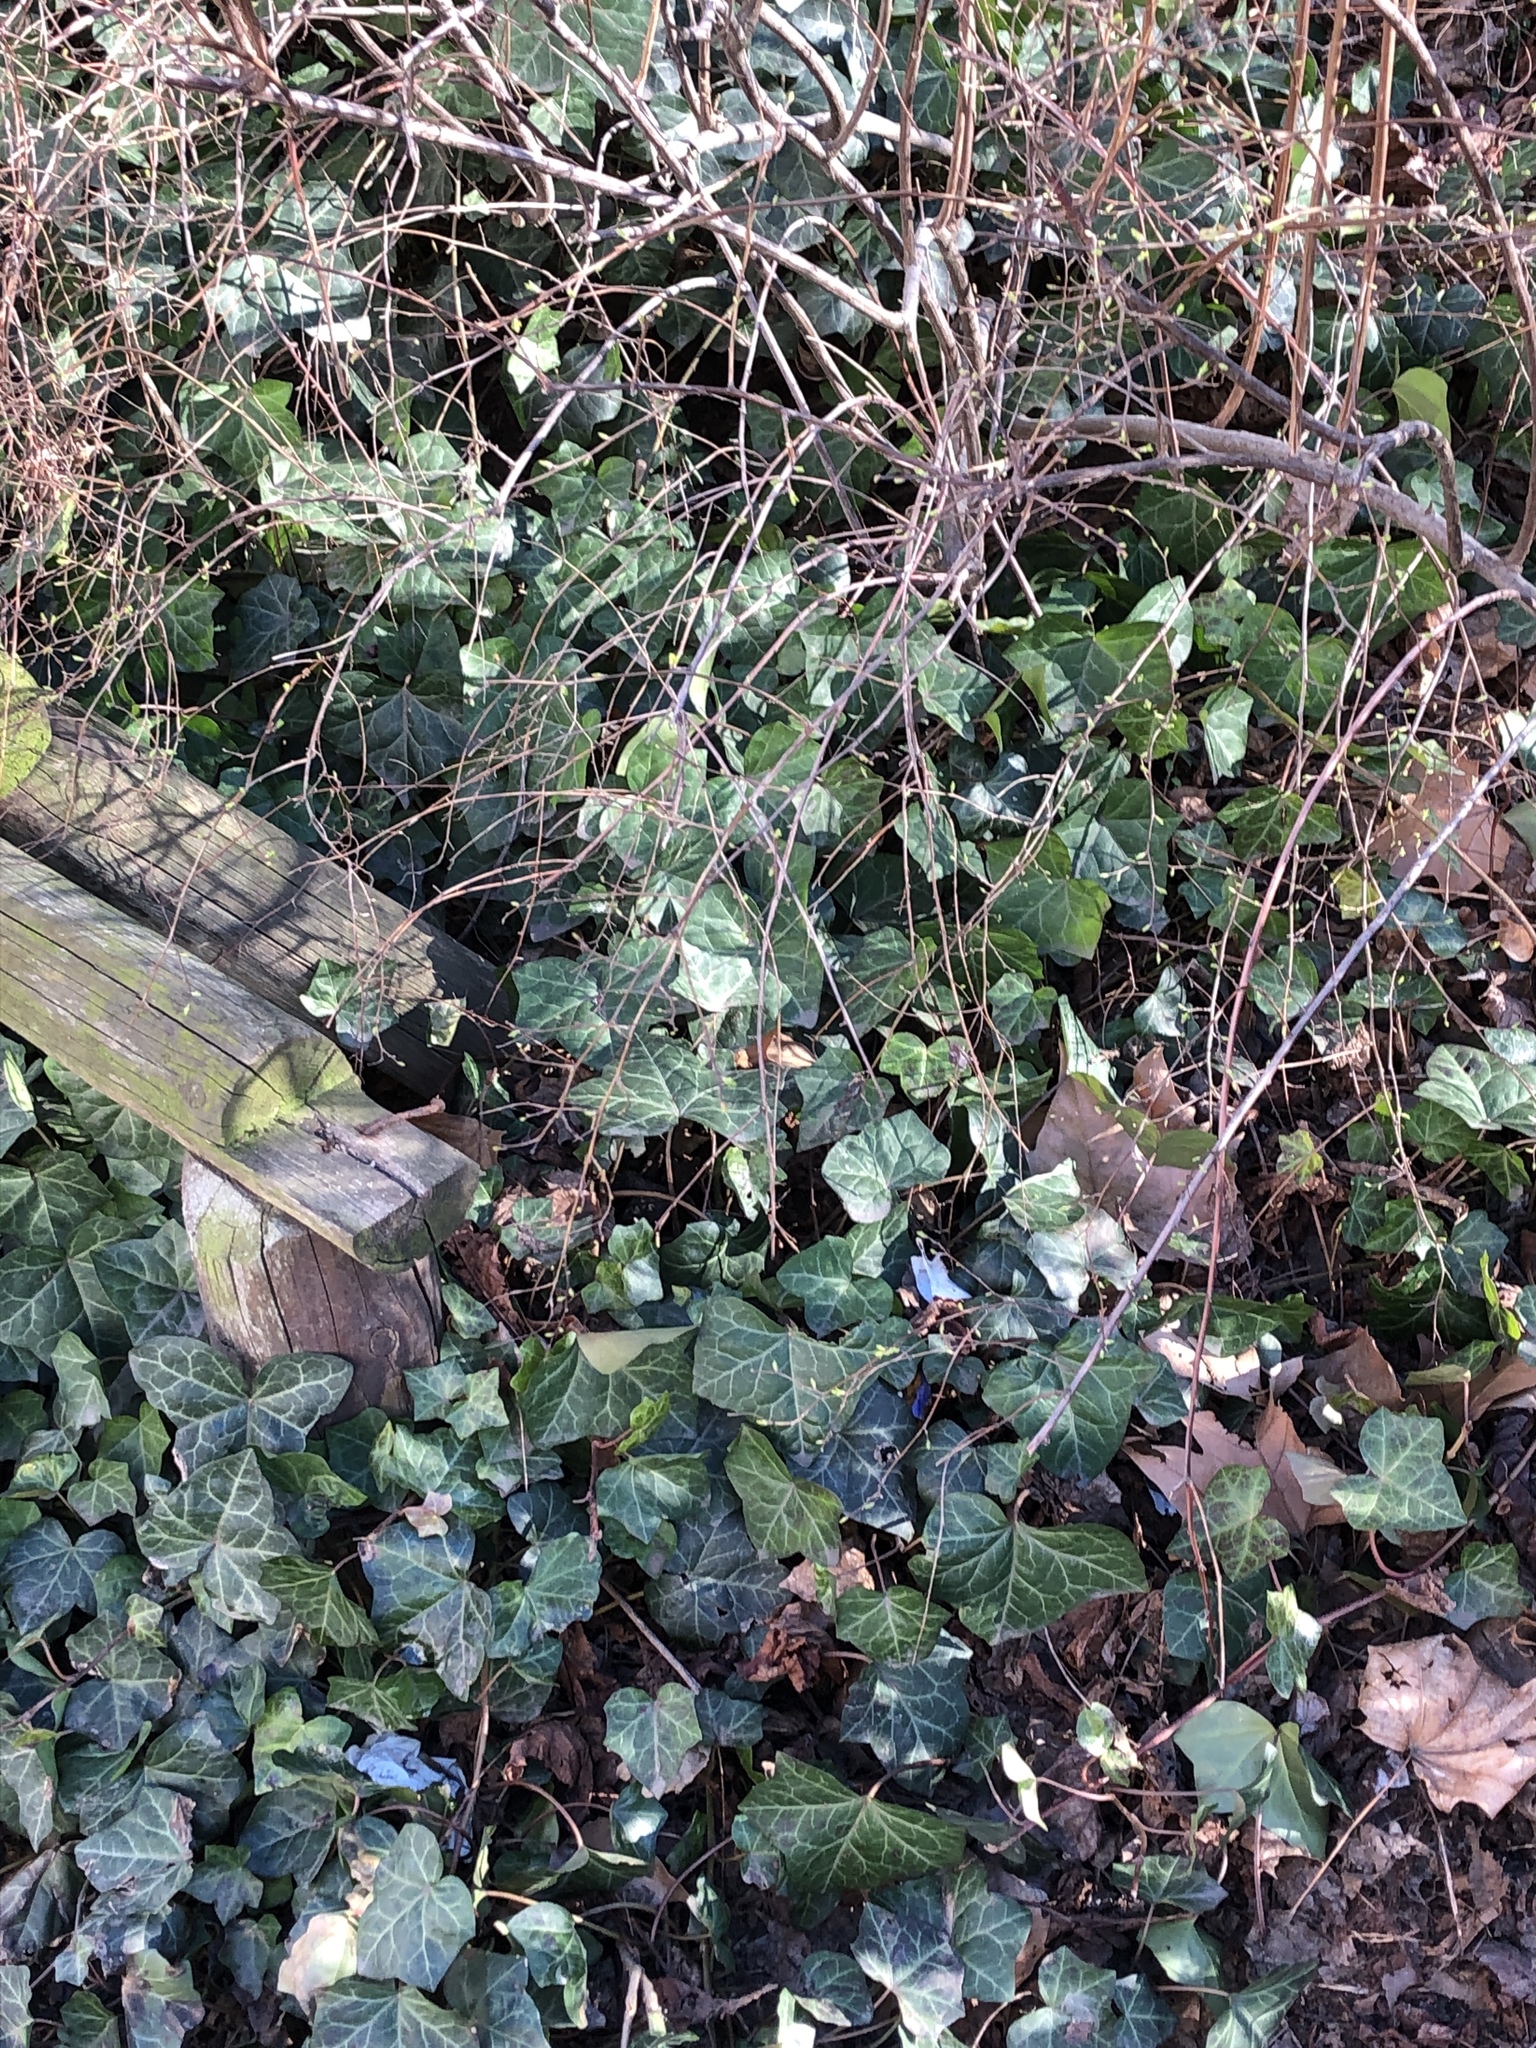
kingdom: Plantae
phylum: Tracheophyta
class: Magnoliopsida
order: Apiales
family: Araliaceae
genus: Hedera
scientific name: Hedera helix
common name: Ivy
